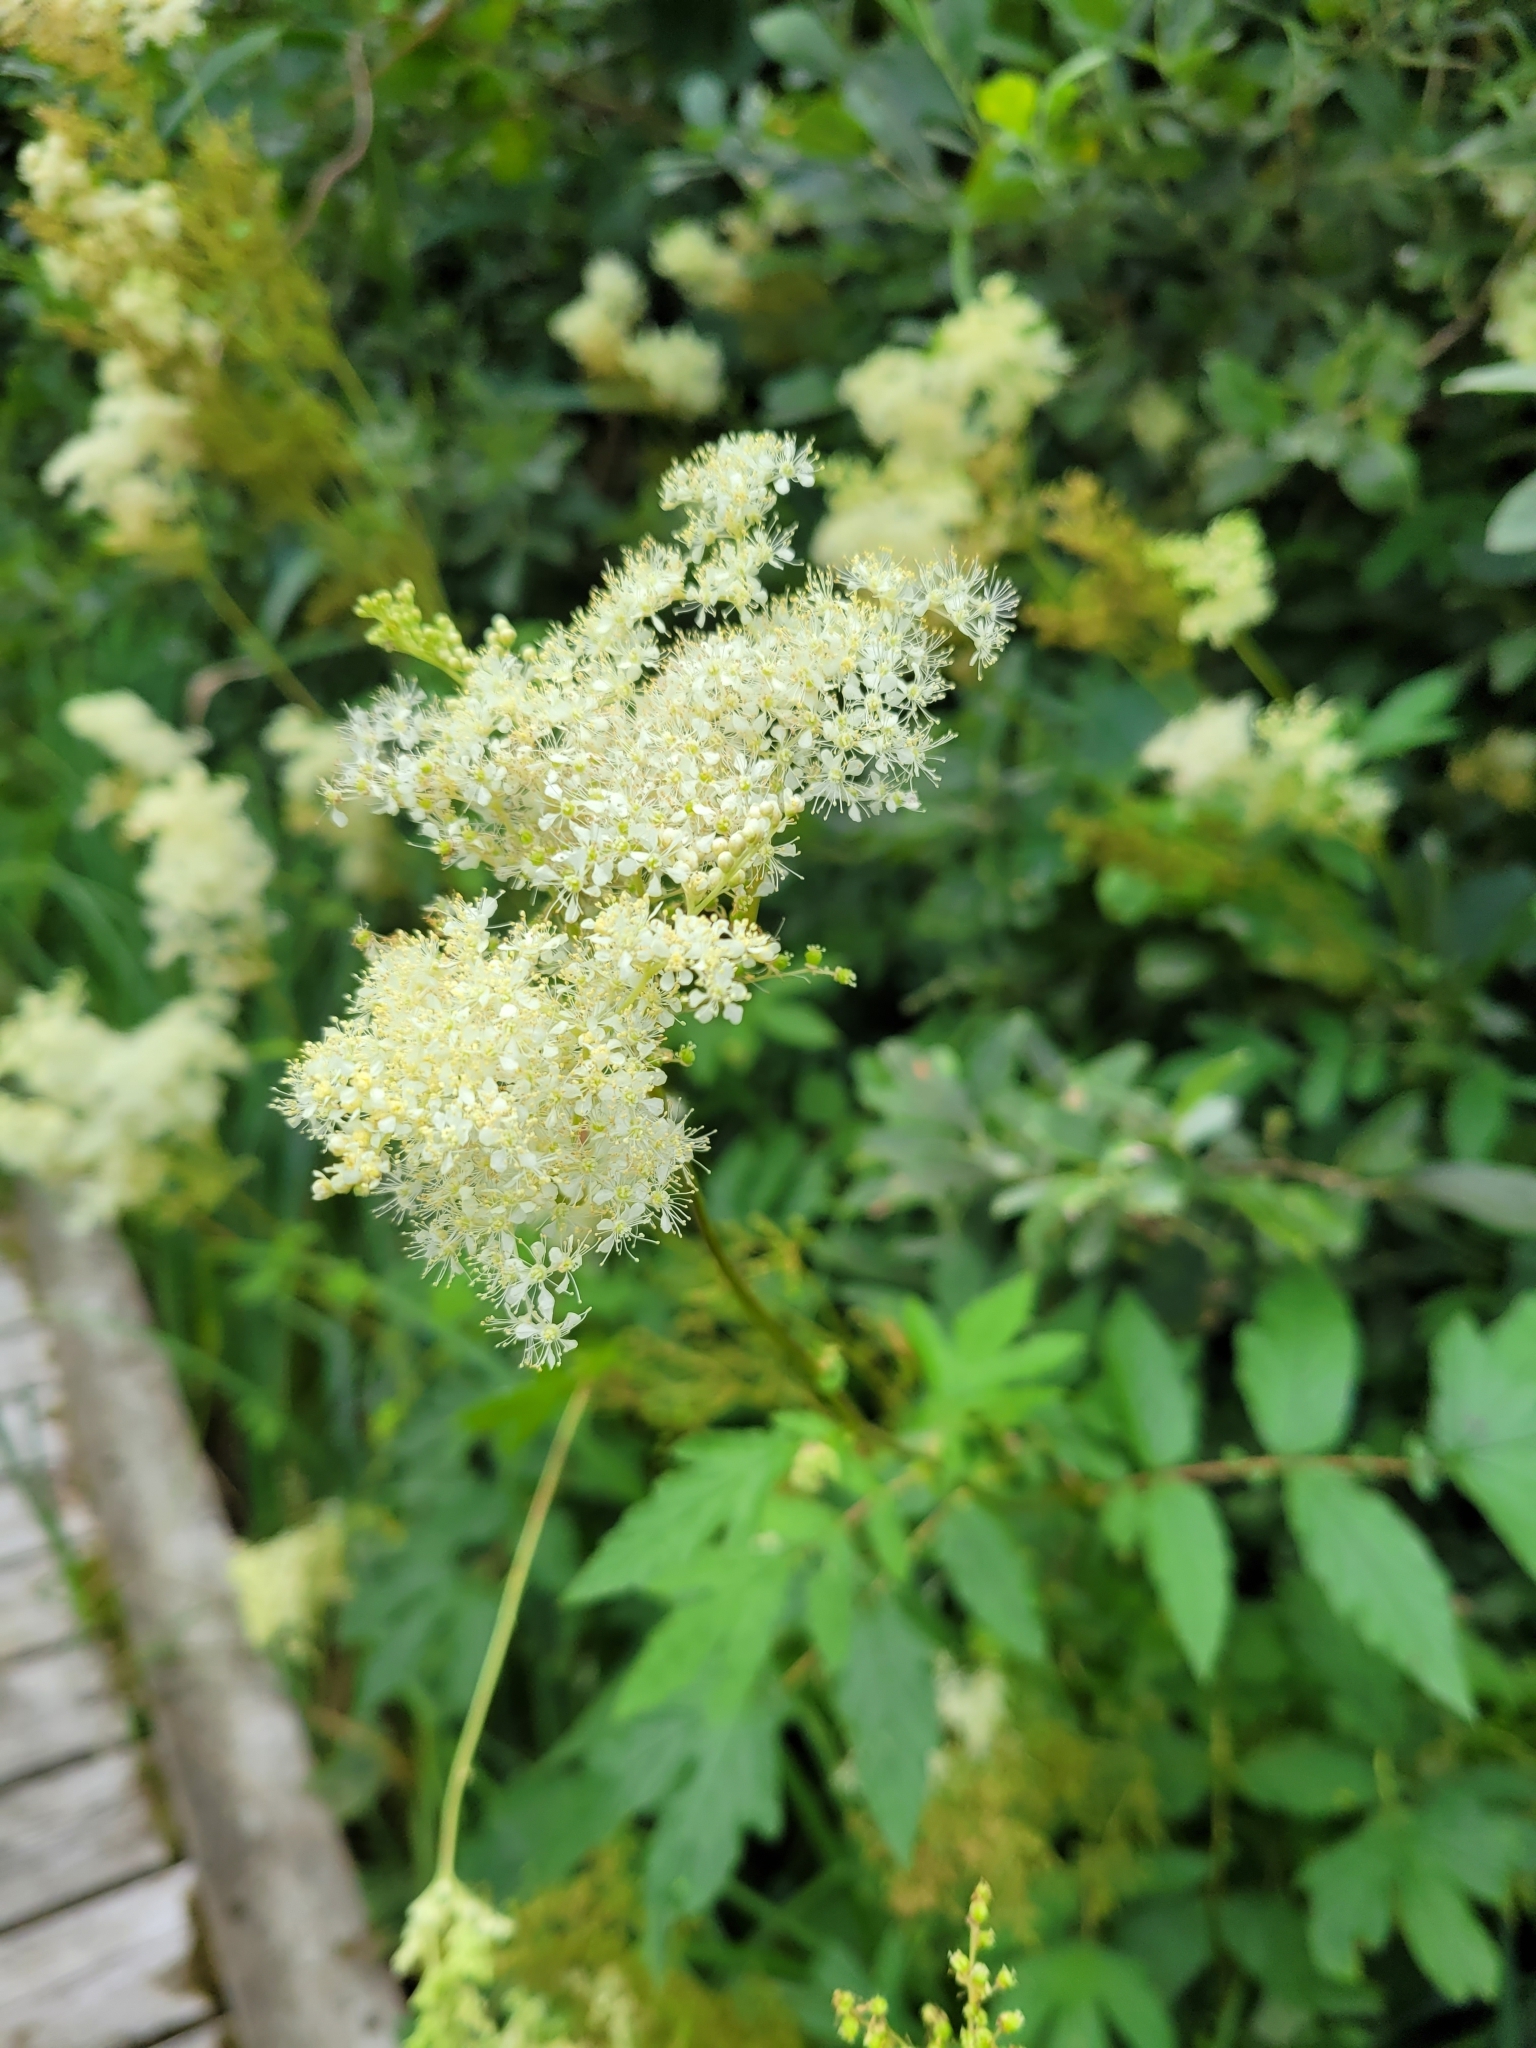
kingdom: Plantae
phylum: Tracheophyta
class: Magnoliopsida
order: Rosales
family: Rosaceae
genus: Filipendula
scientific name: Filipendula ulmaria
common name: Meadowsweet
